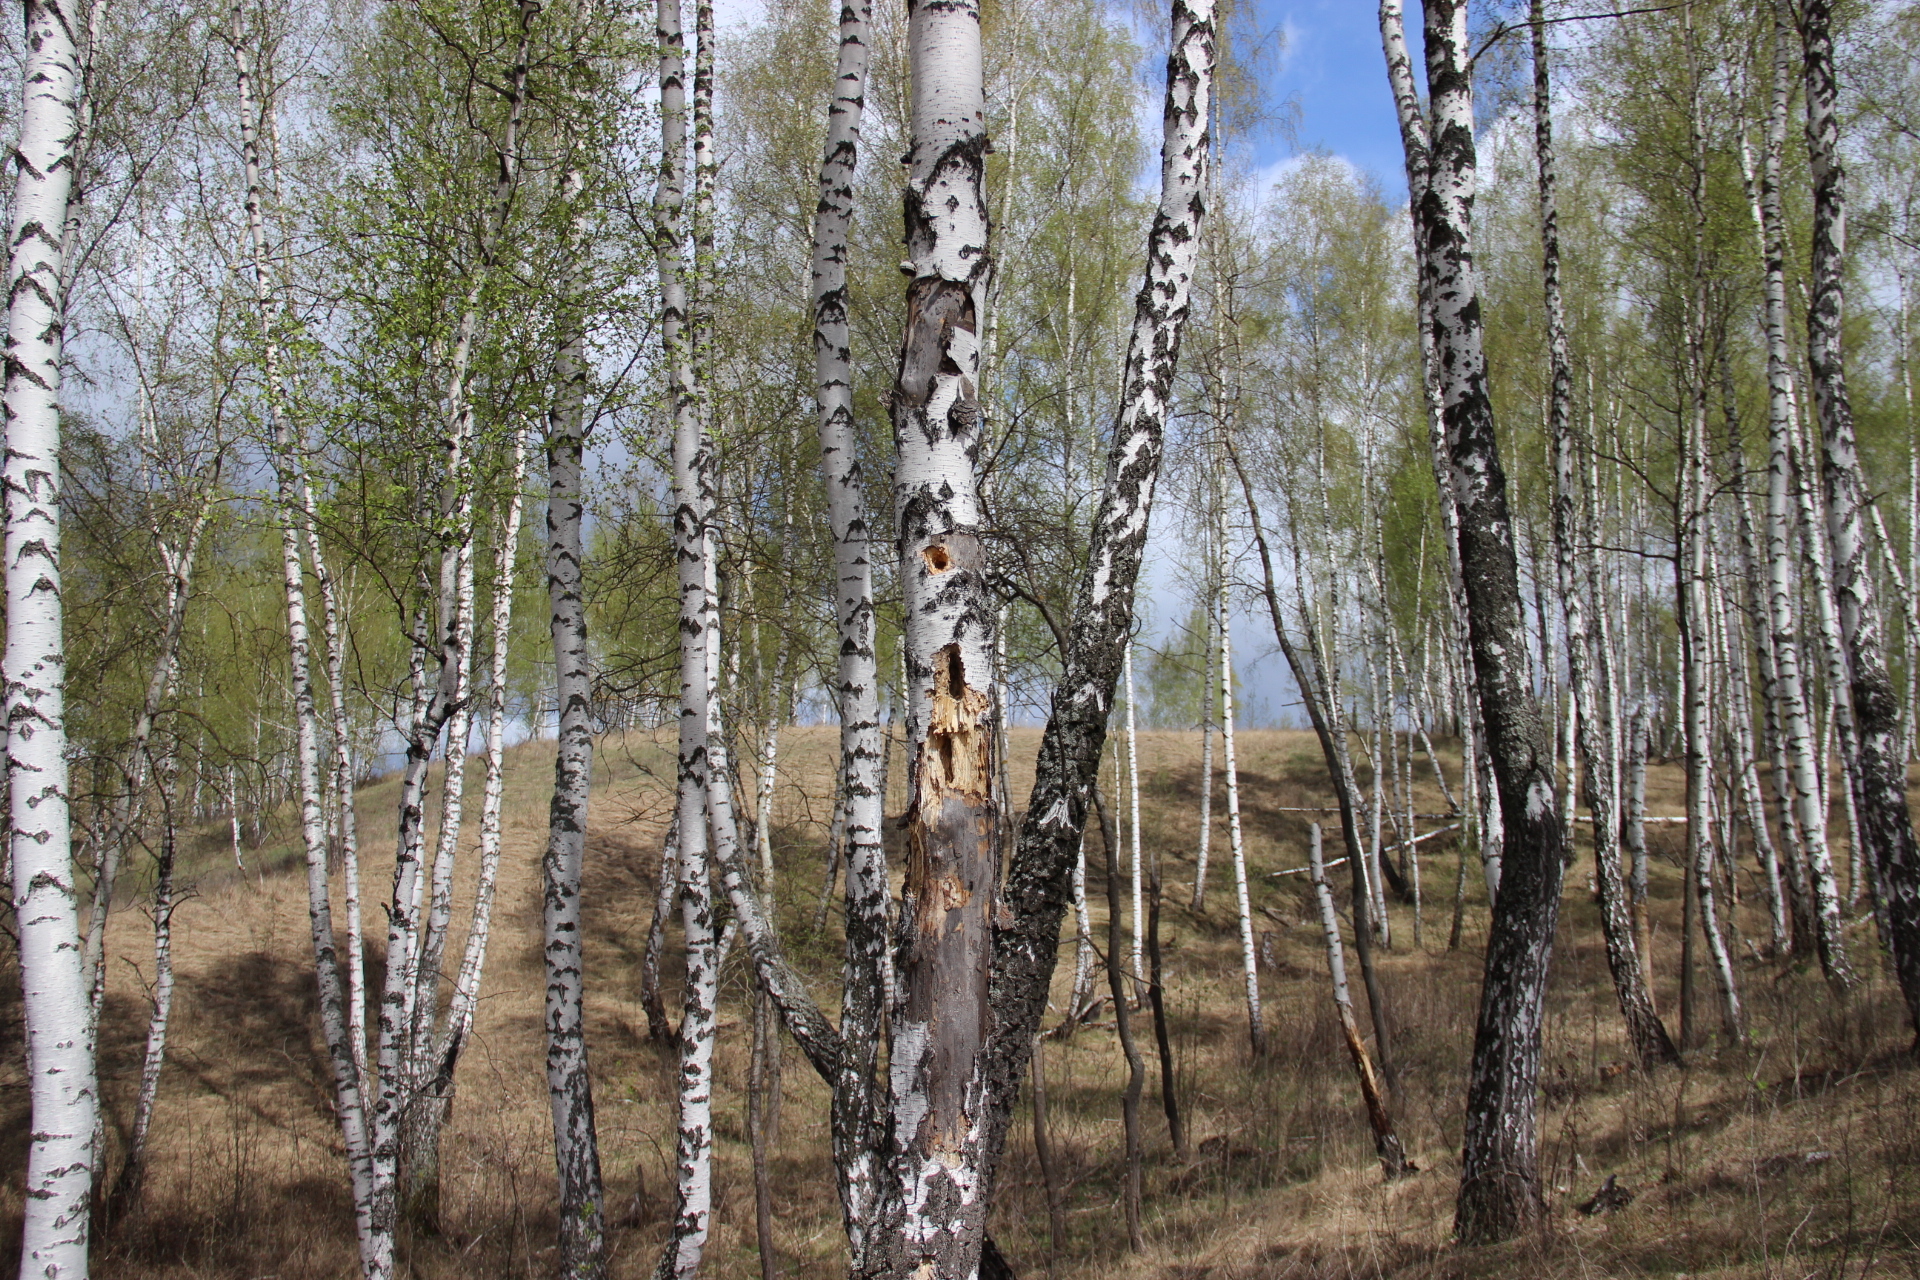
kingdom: Plantae
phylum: Tracheophyta
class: Magnoliopsida
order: Fagales
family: Betulaceae
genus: Betula
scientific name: Betula pendula
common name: Silver birch
